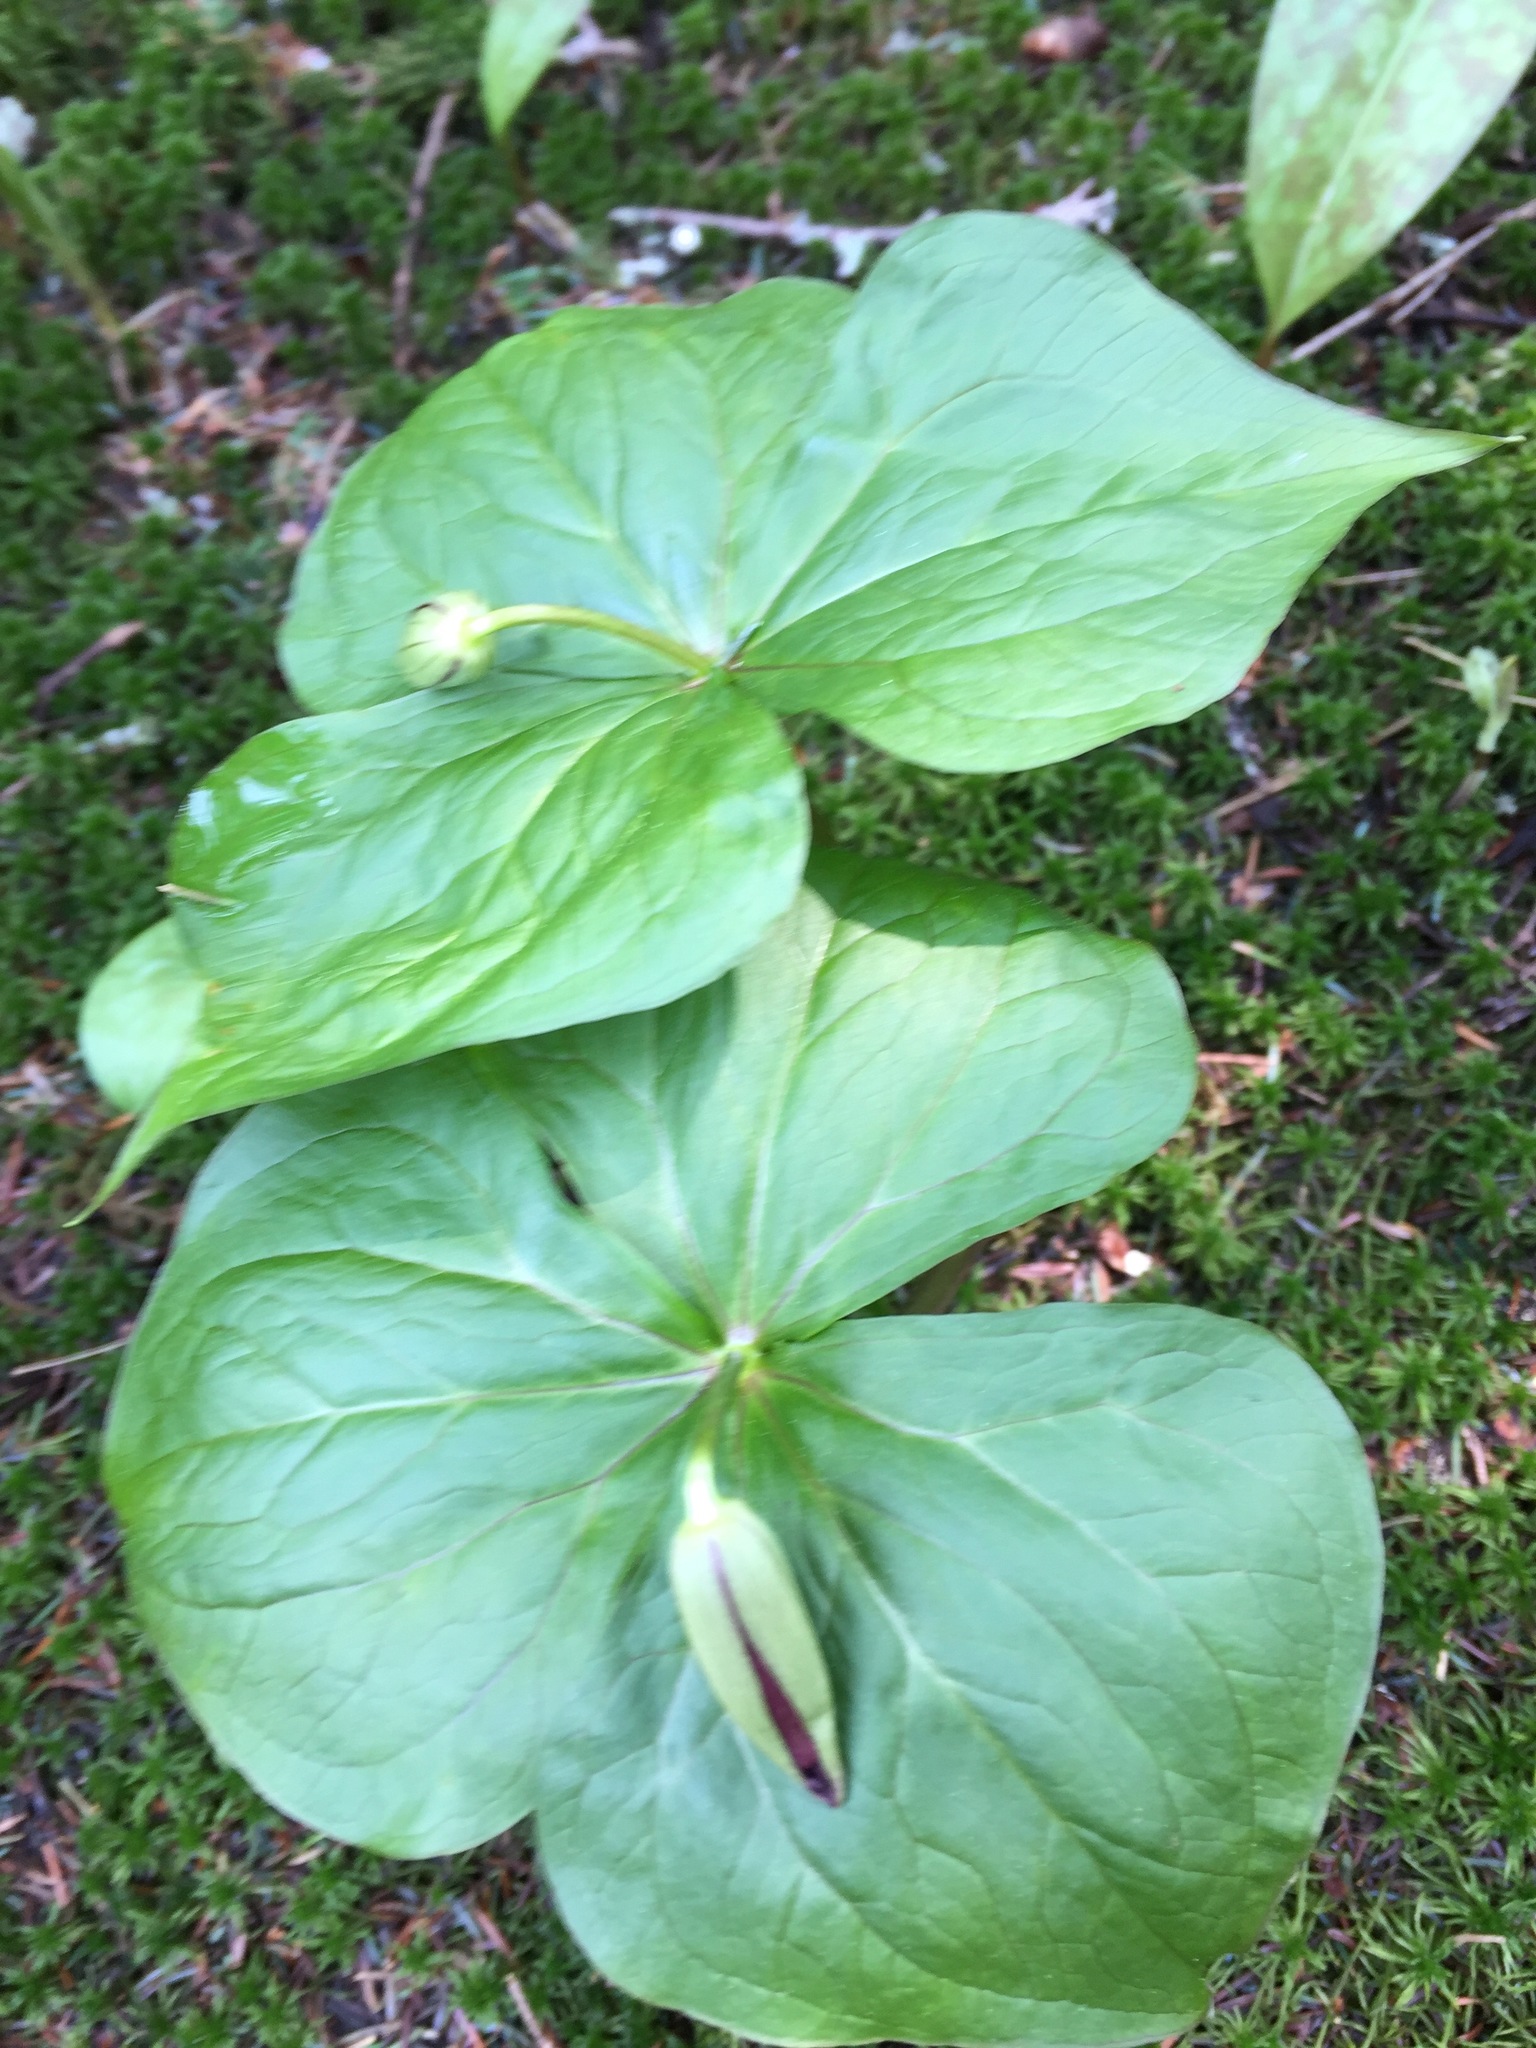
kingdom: Plantae
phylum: Tracheophyta
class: Liliopsida
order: Liliales
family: Melanthiaceae
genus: Trillium
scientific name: Trillium erectum
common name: Purple trillium
